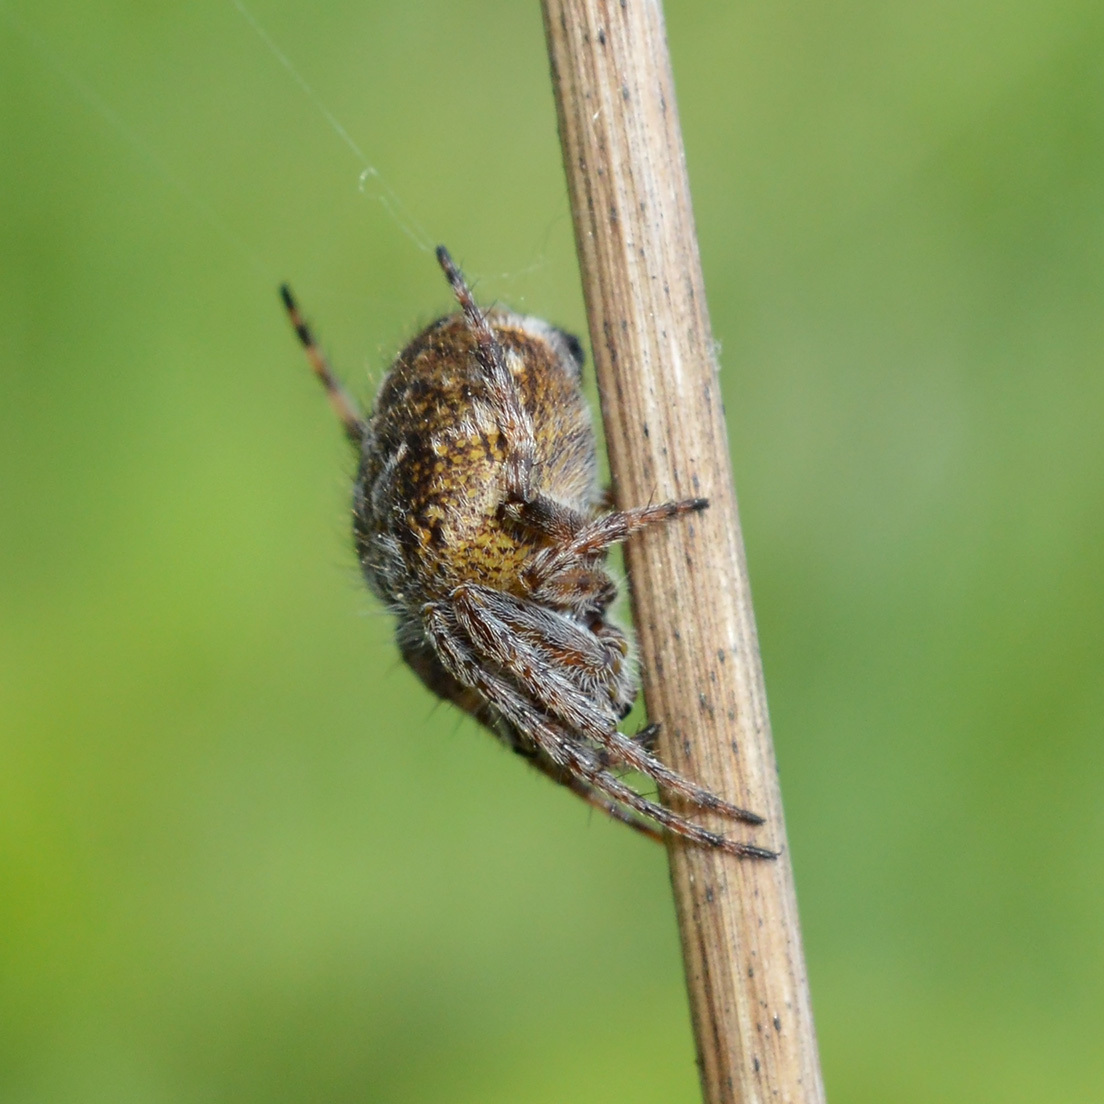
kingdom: Animalia
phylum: Arthropoda
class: Arachnida
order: Araneae
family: Araneidae
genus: Agalenatea
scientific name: Agalenatea redii
